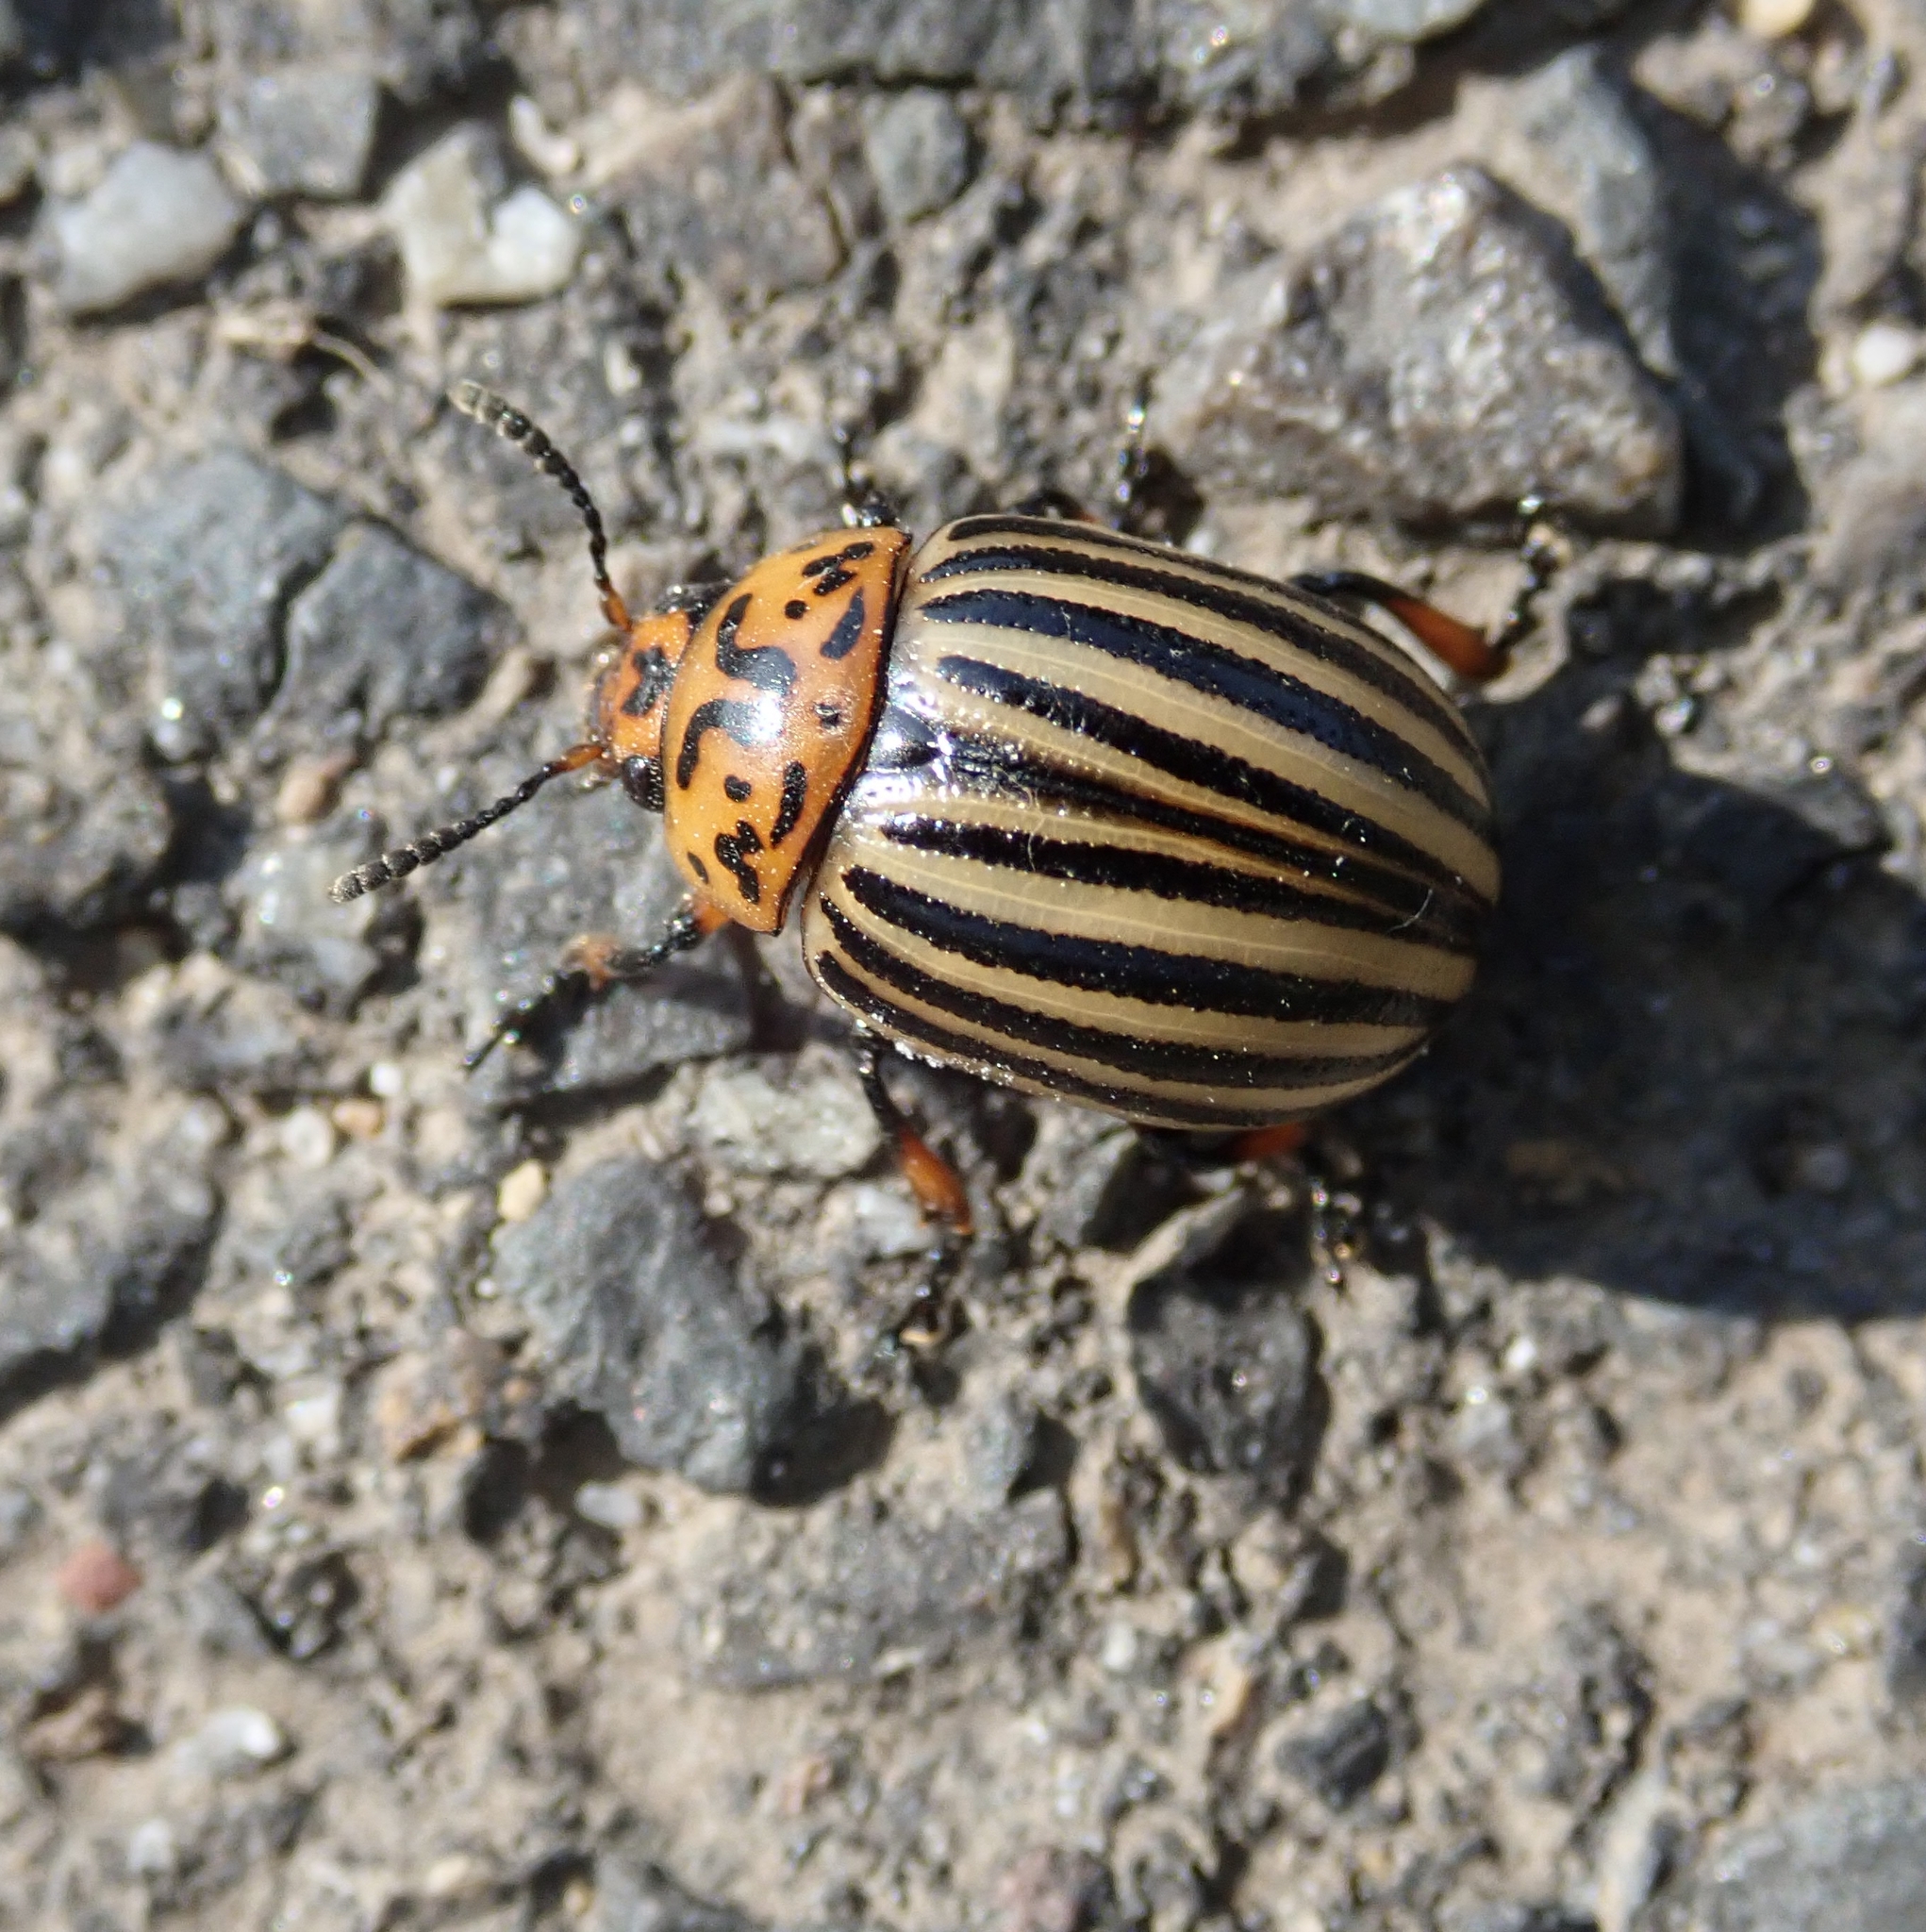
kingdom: Animalia
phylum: Arthropoda
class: Insecta
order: Coleoptera
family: Chrysomelidae
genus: Leptinotarsa
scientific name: Leptinotarsa decemlineata
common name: Colorado potato beetle
